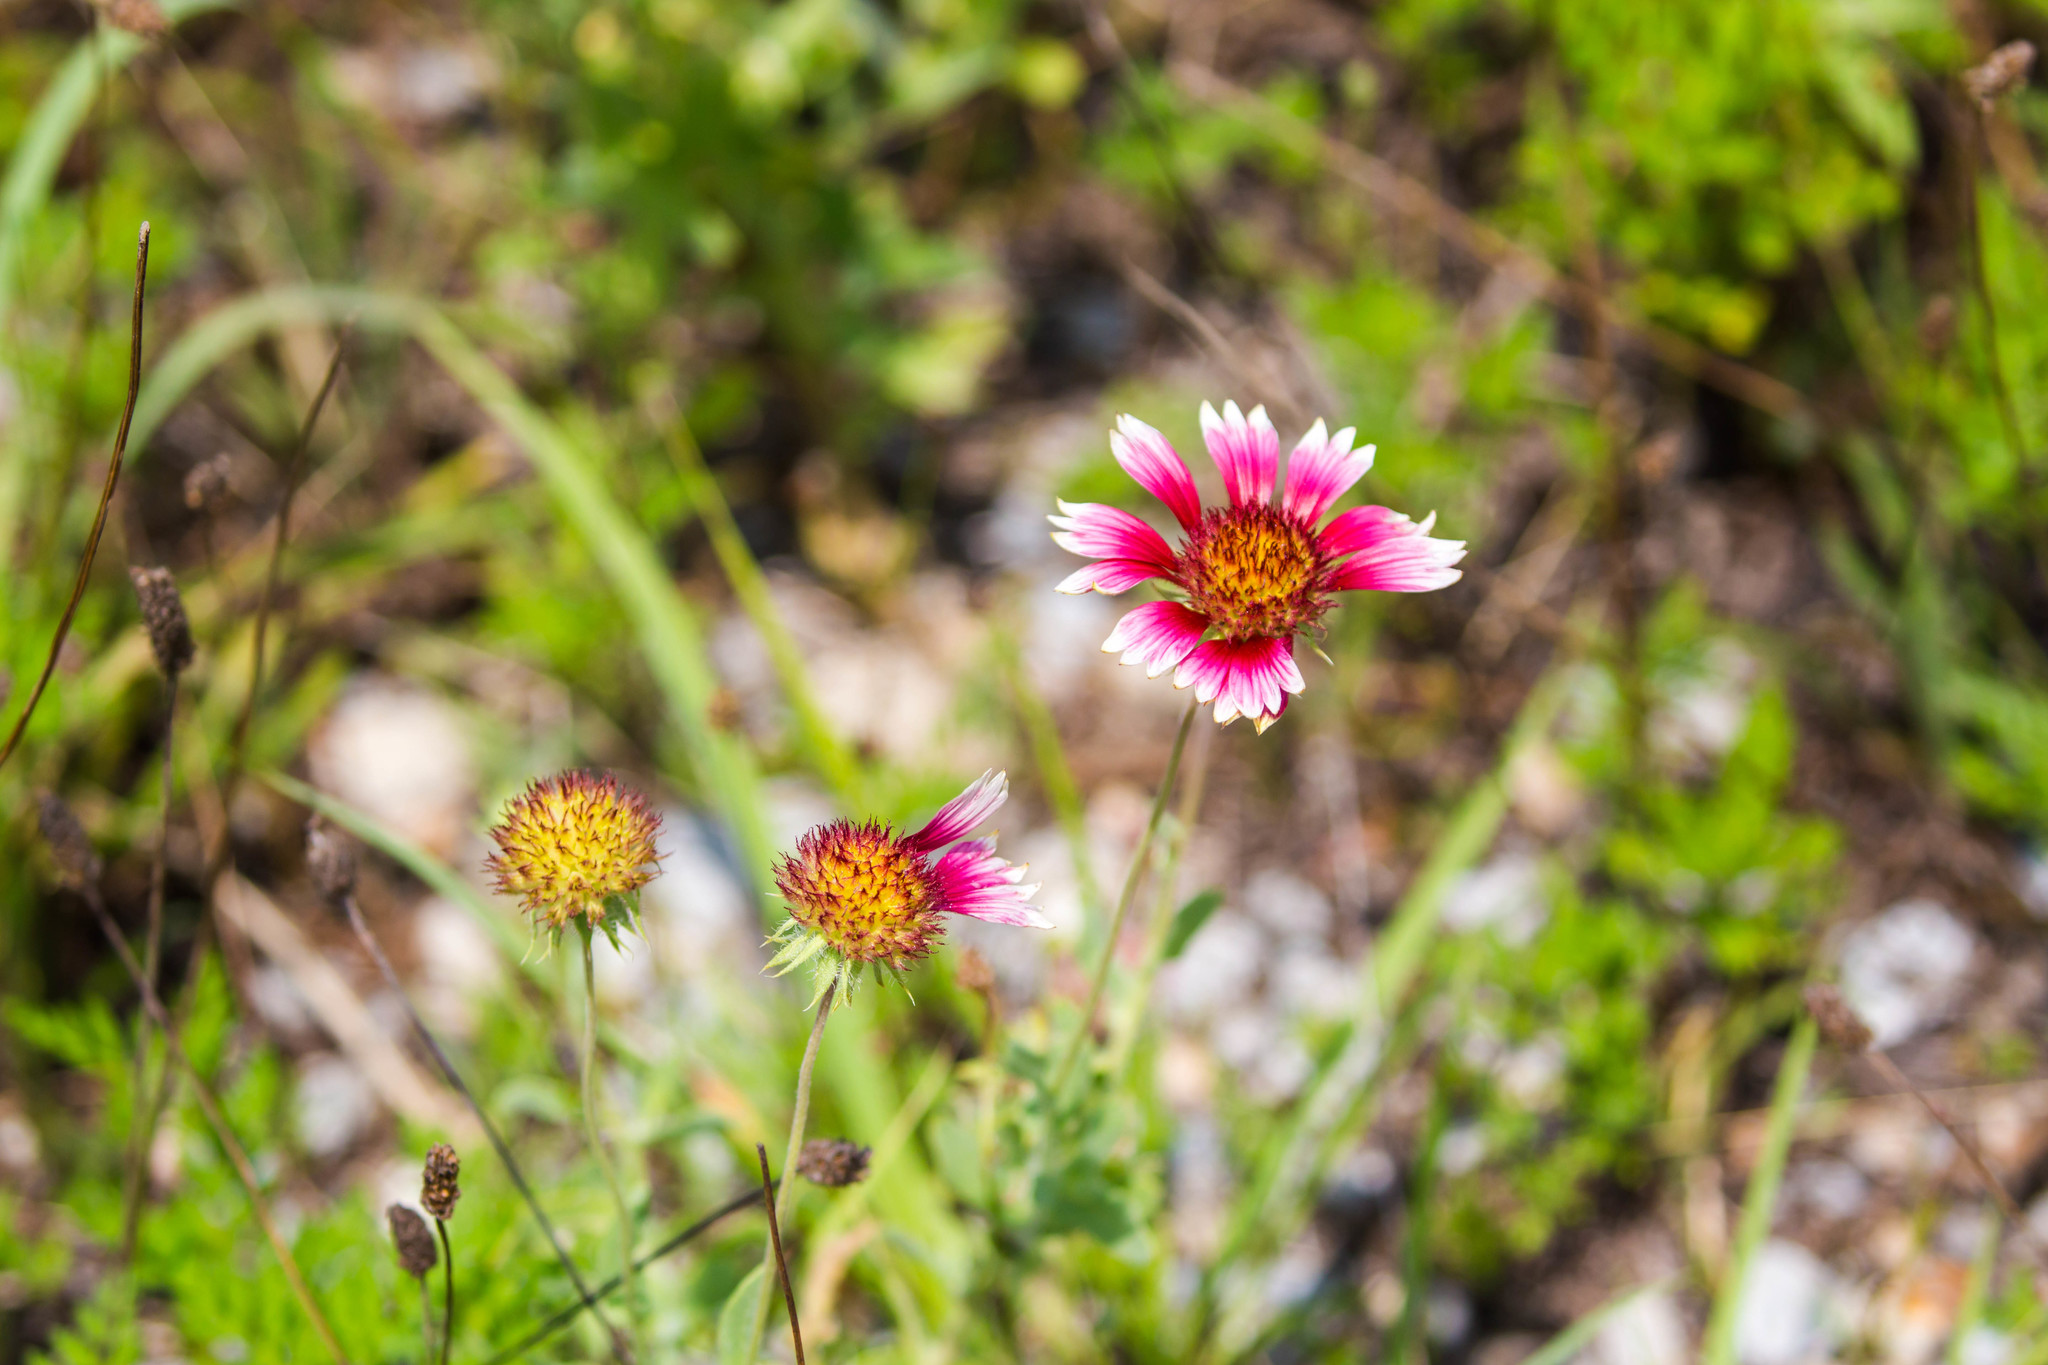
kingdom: Plantae
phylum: Tracheophyta
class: Magnoliopsida
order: Asterales
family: Asteraceae
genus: Gaillardia
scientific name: Gaillardia pulchella
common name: Firewheel
